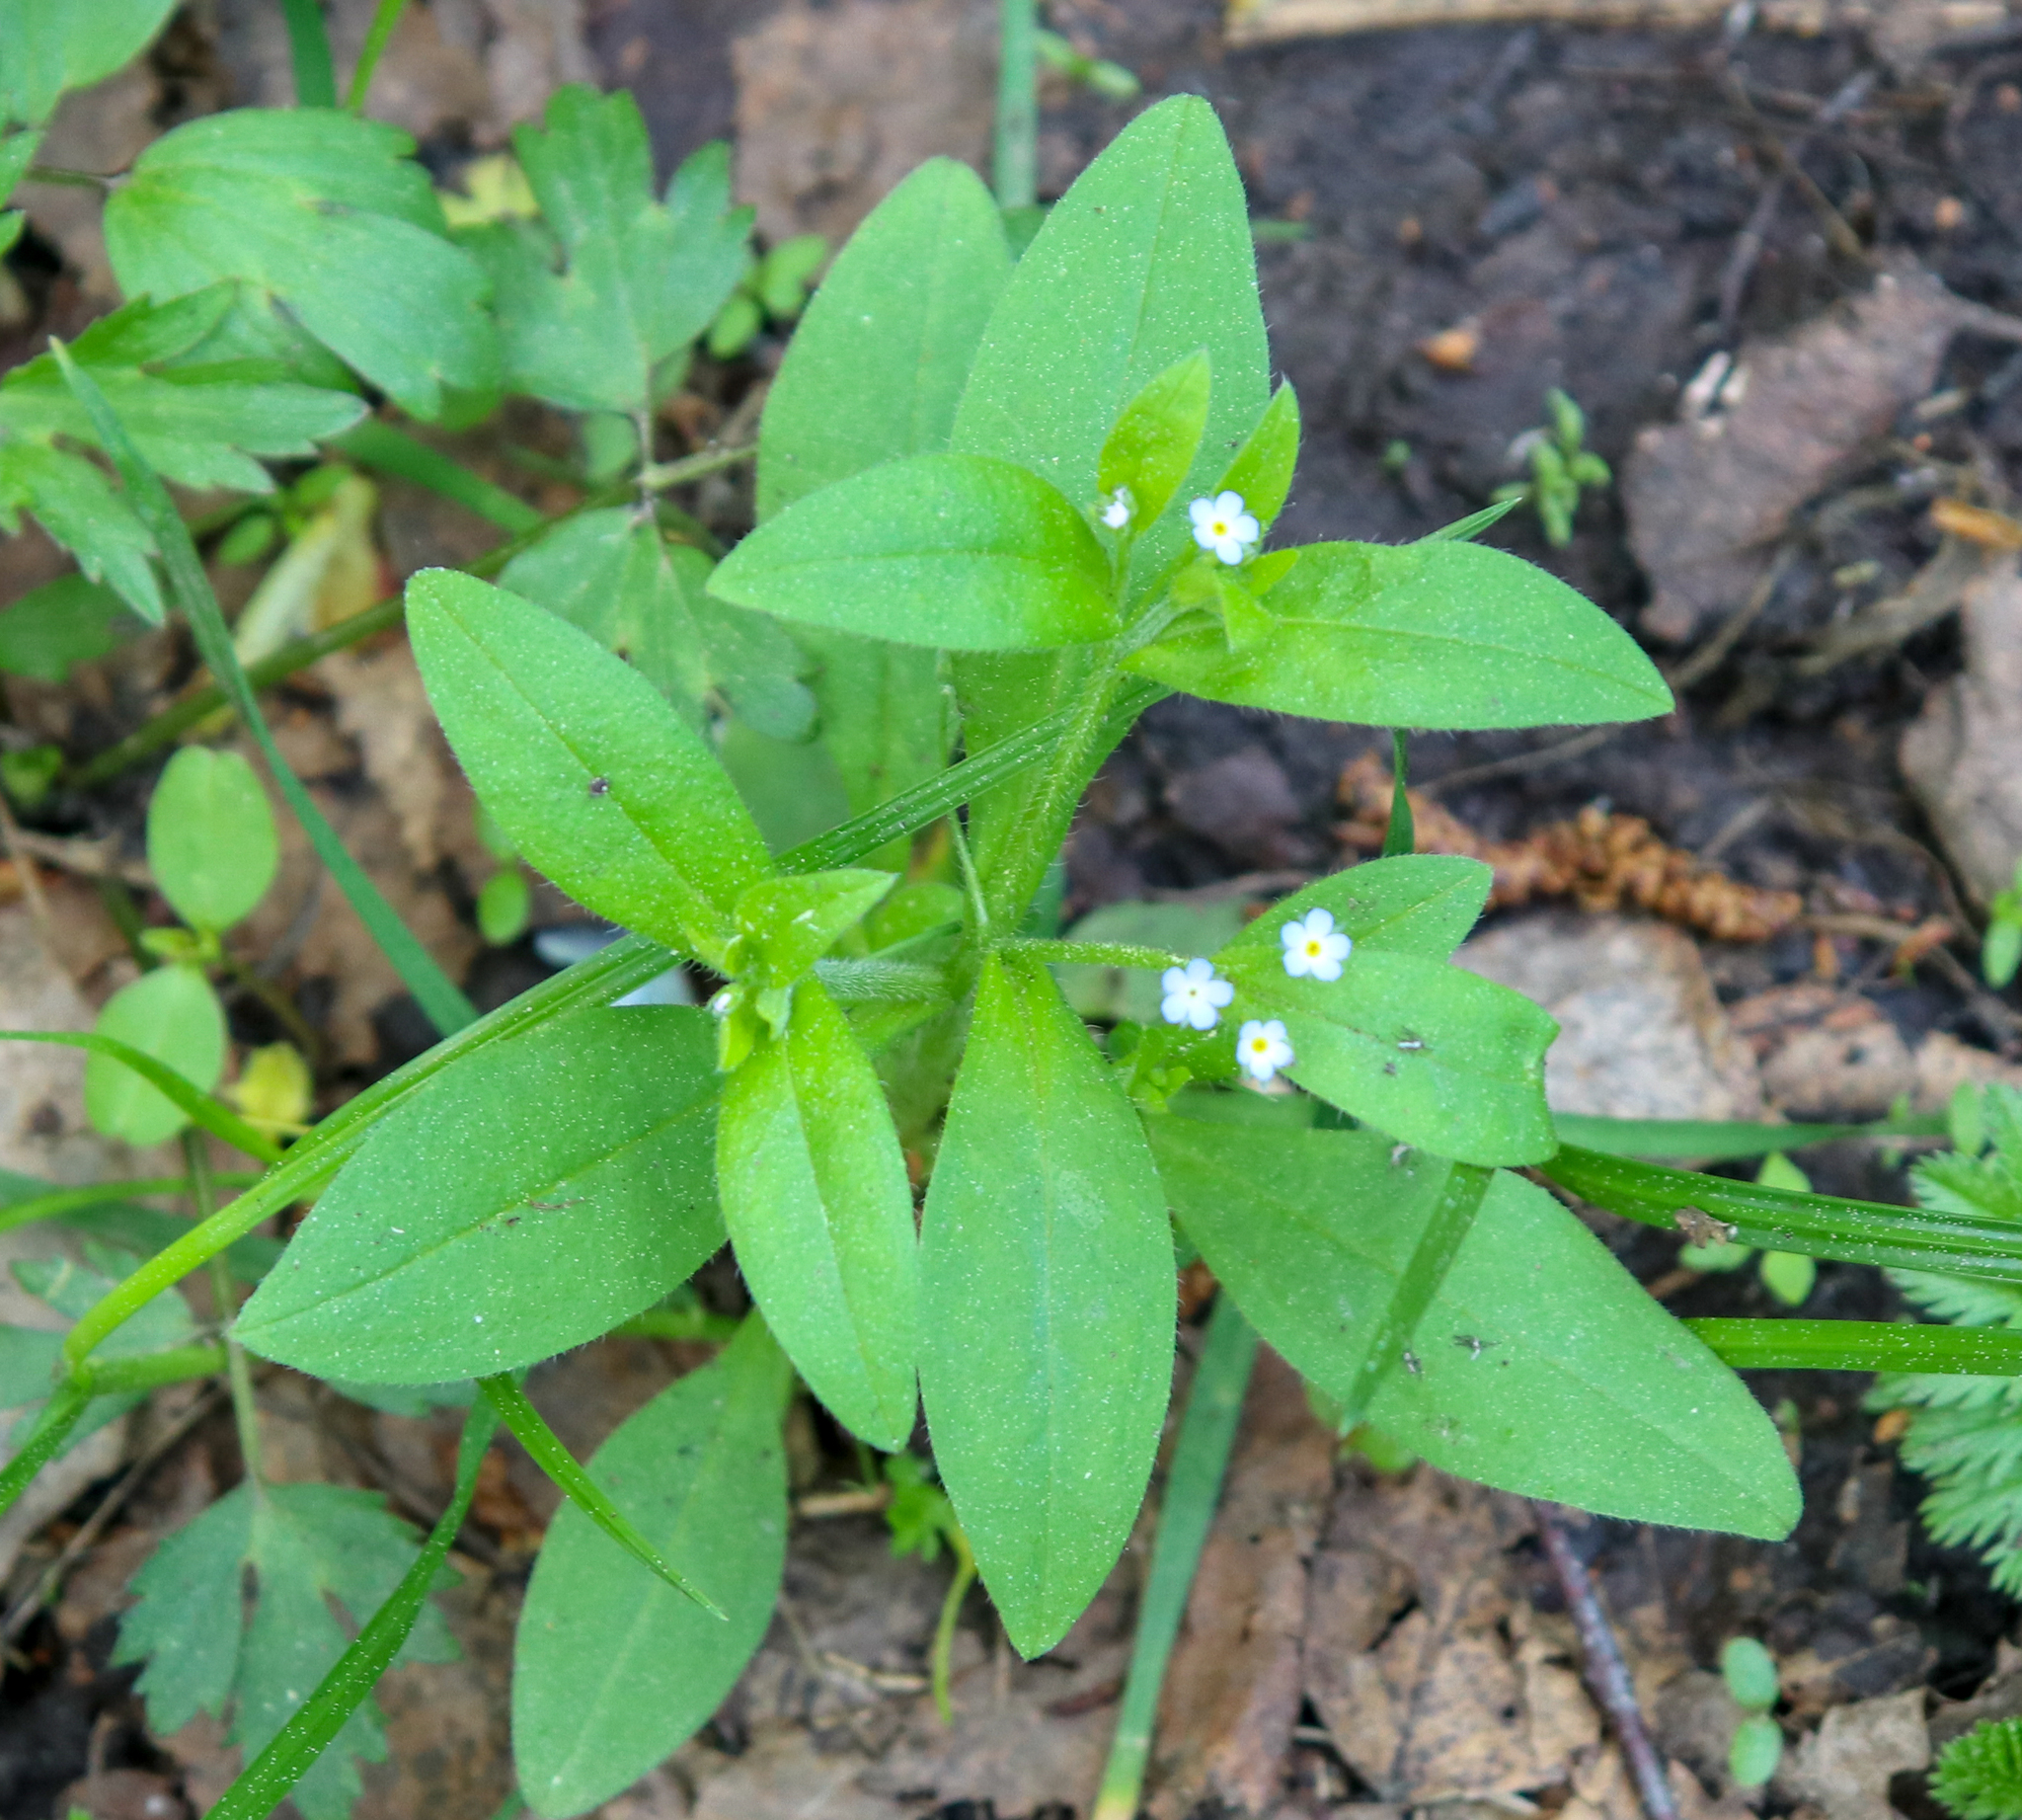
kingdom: Plantae
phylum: Tracheophyta
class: Magnoliopsida
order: Boraginales
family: Boraginaceae
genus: Myosotis
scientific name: Myosotis sparsiflora
